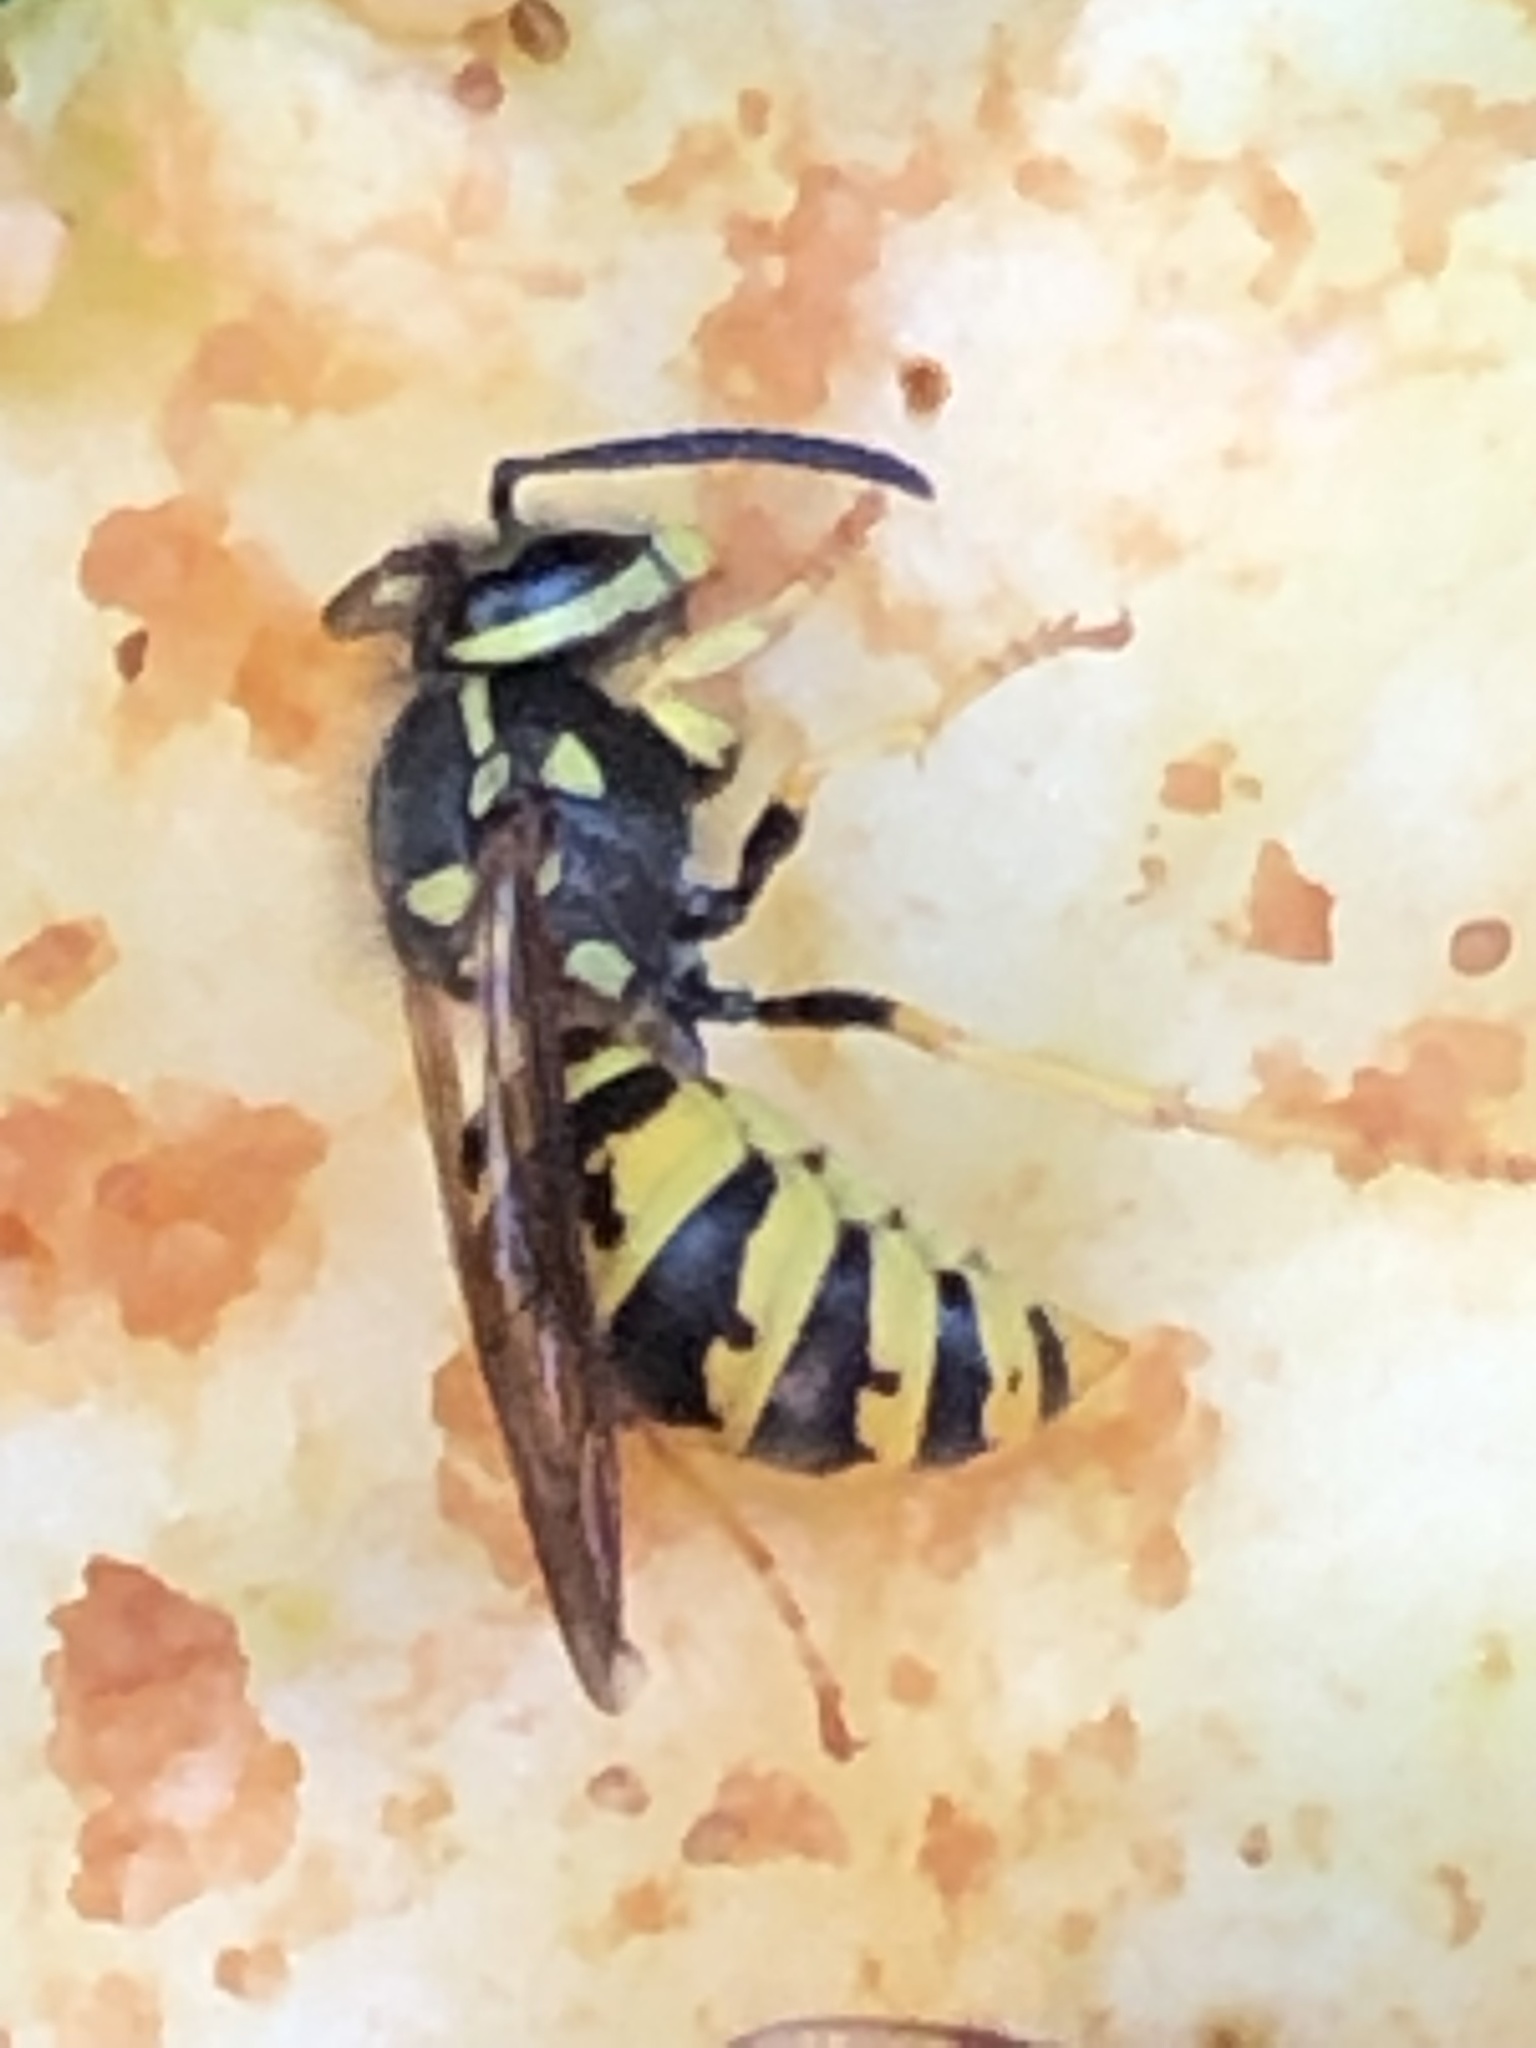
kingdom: Animalia
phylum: Arthropoda
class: Insecta
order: Hymenoptera
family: Vespidae
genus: Vespula
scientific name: Vespula germanica
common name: German wasp
